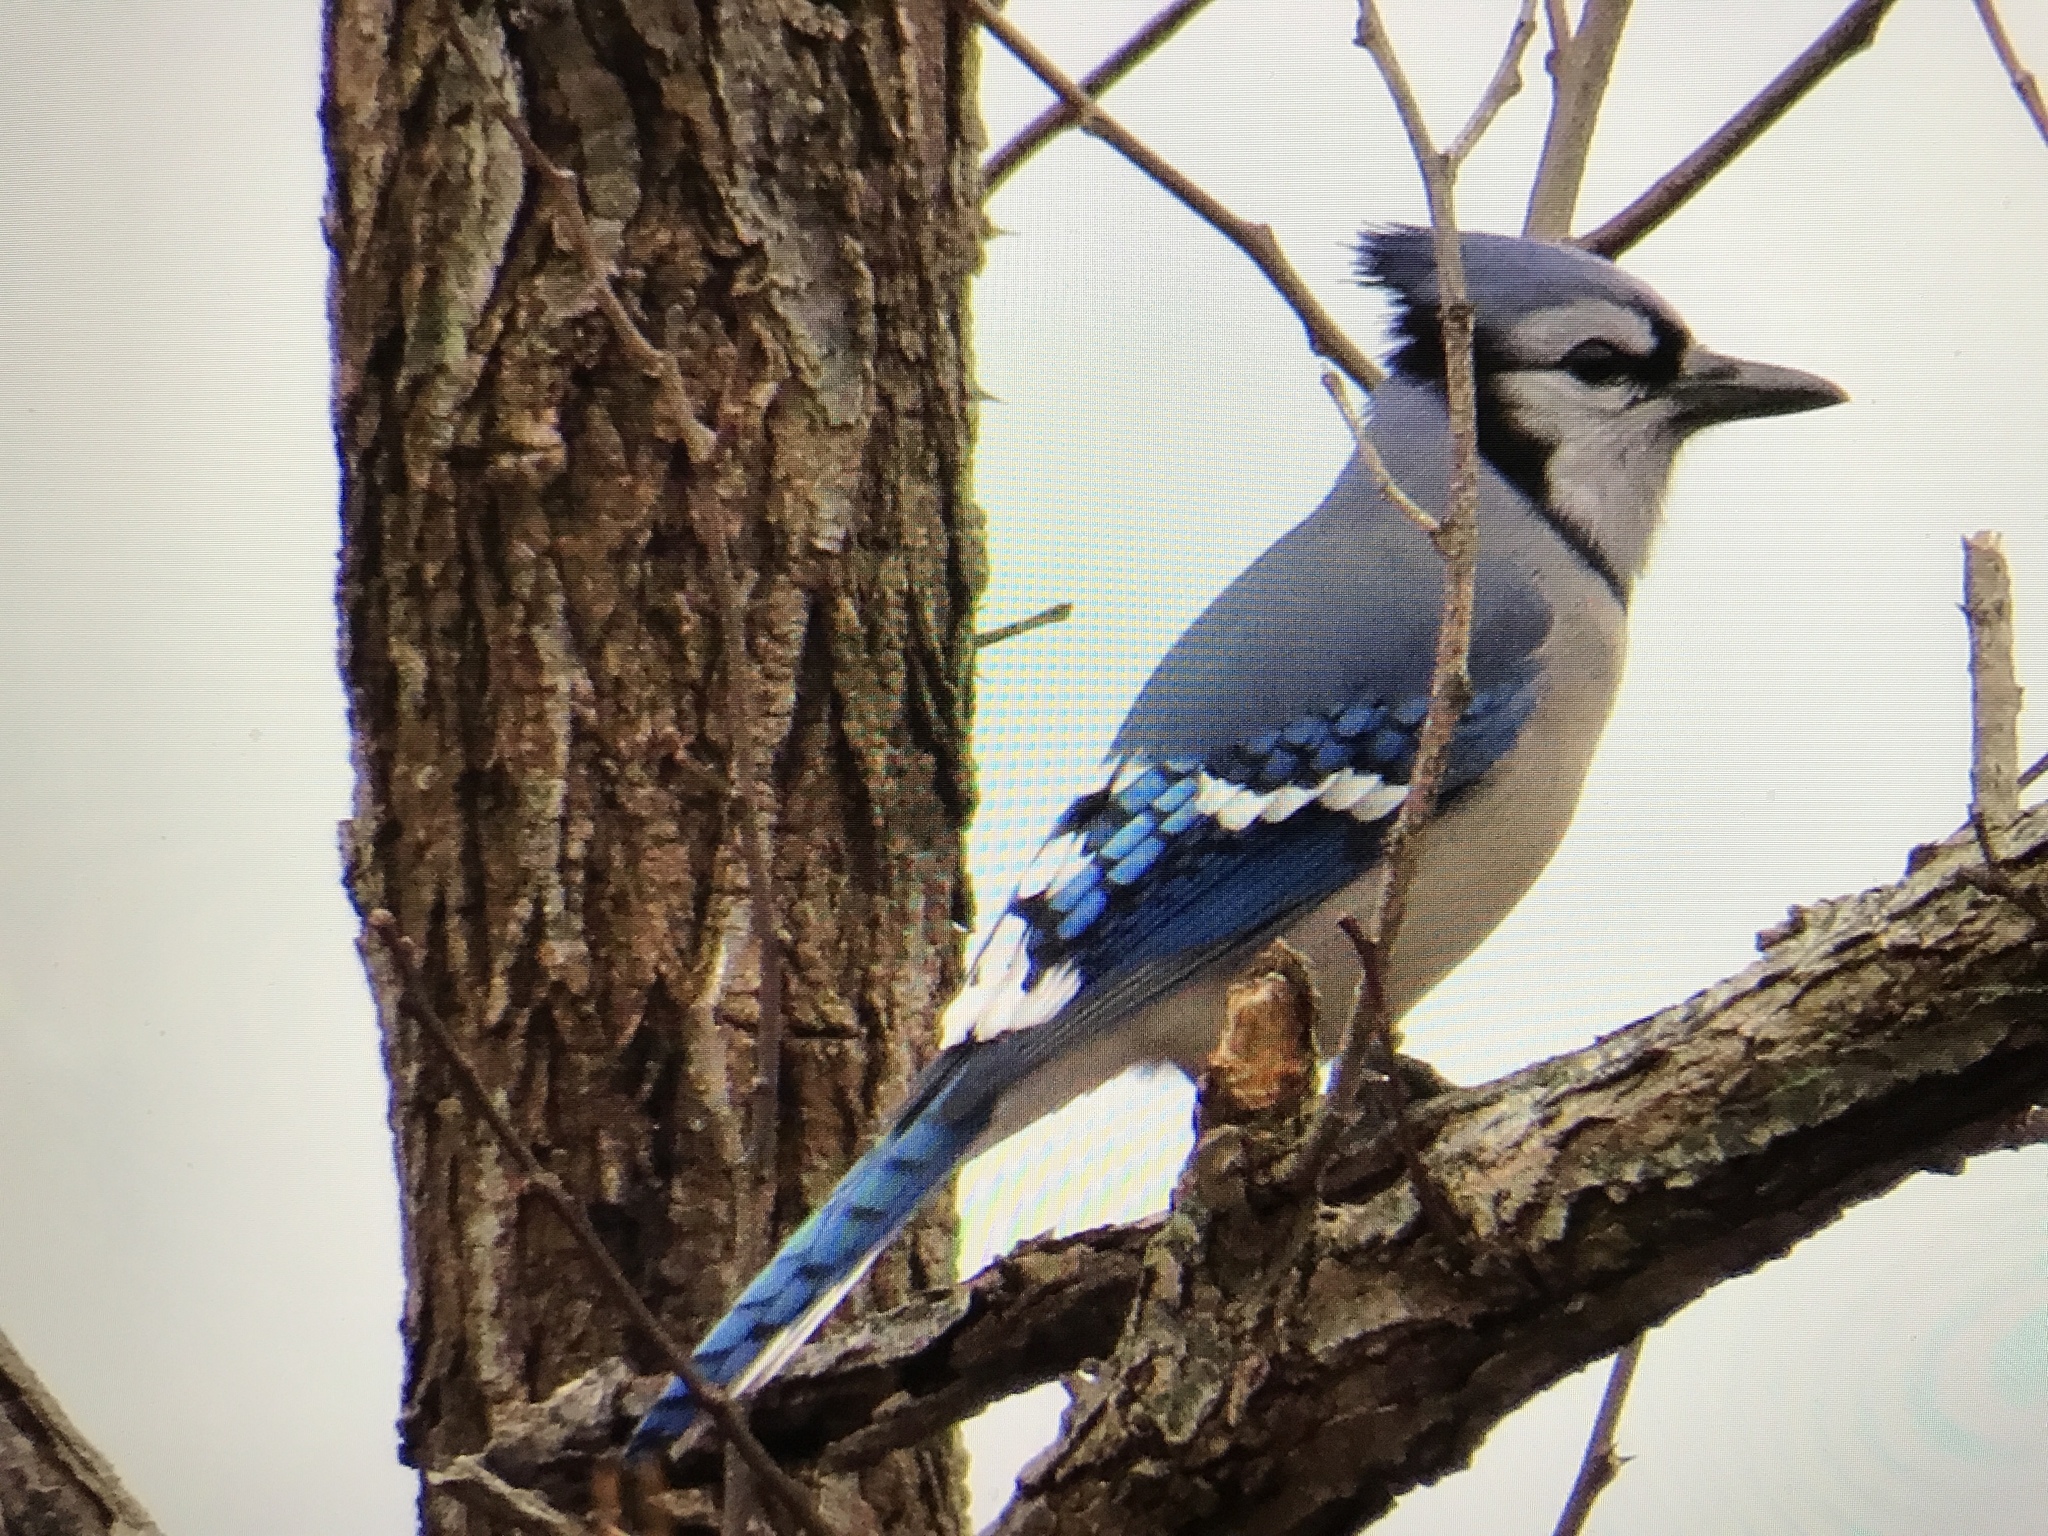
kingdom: Animalia
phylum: Chordata
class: Aves
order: Passeriformes
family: Corvidae
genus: Cyanocitta
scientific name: Cyanocitta cristata
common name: Blue jay
